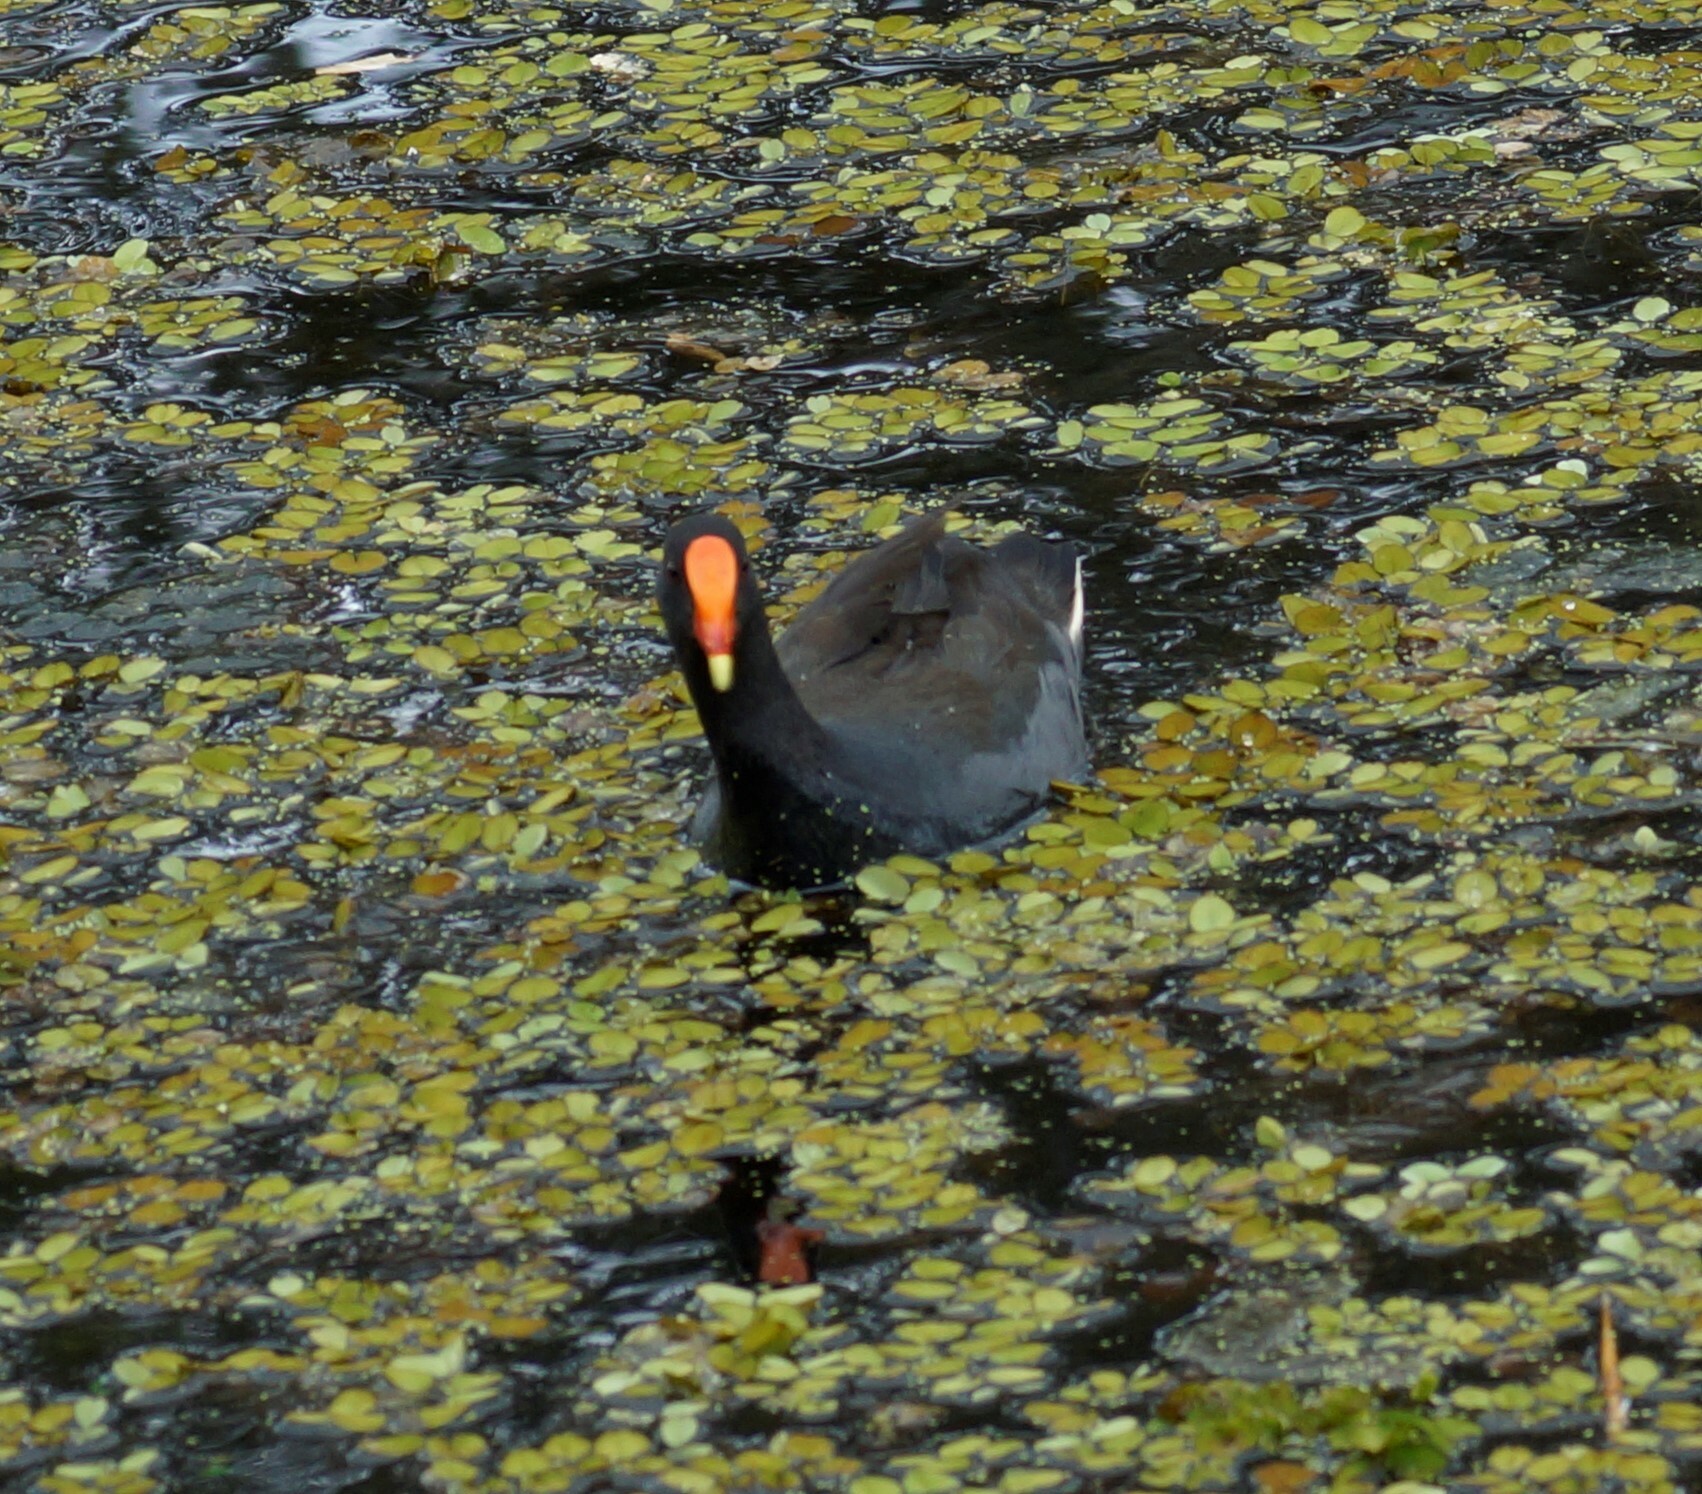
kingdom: Animalia
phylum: Chordata
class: Aves
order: Gruiformes
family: Rallidae
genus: Gallinula
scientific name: Gallinula tenebrosa
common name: Dusky moorhen
